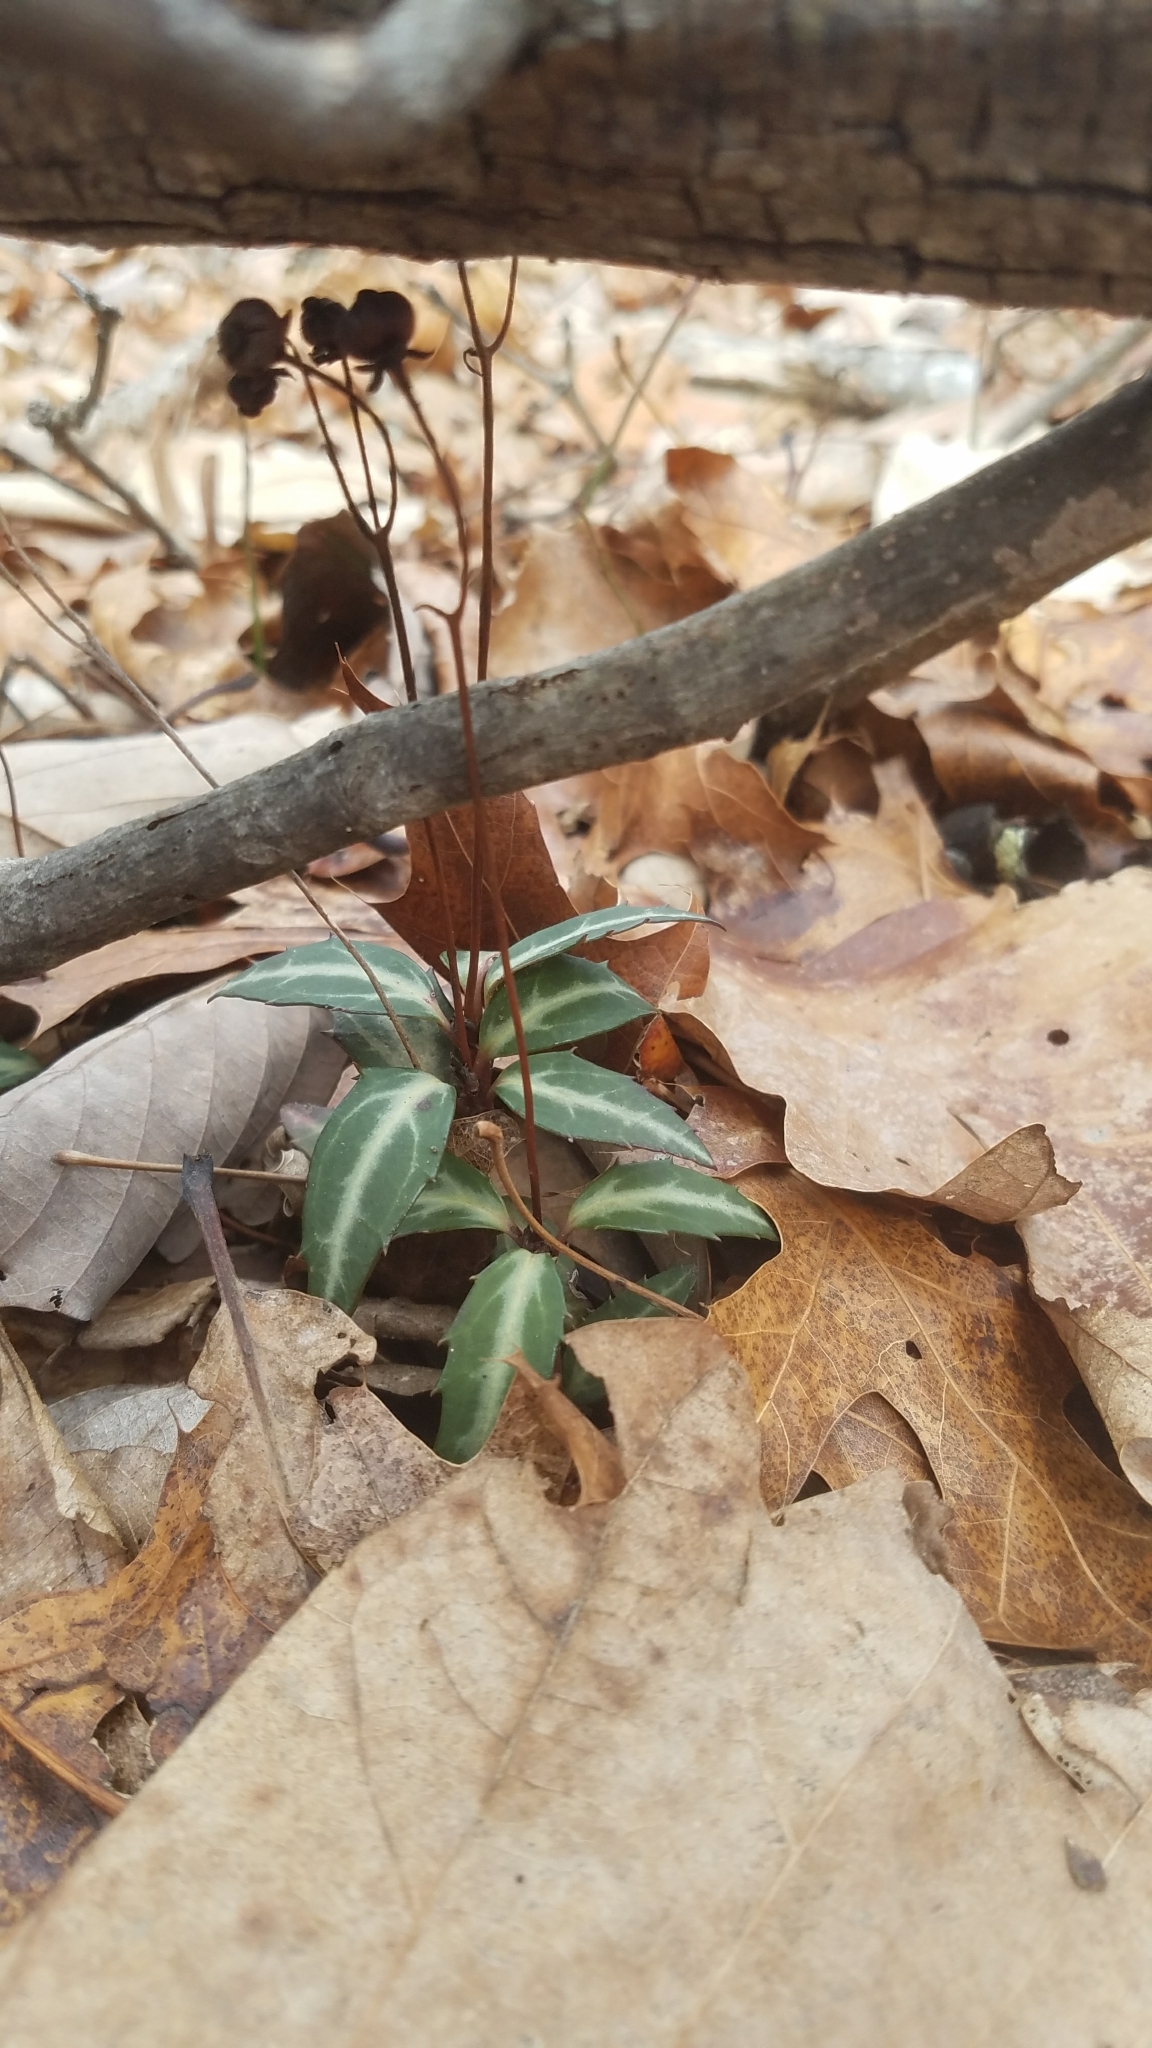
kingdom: Plantae
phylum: Tracheophyta
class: Magnoliopsida
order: Ericales
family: Ericaceae
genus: Chimaphila
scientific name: Chimaphila maculata
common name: Spotted pipsissewa
